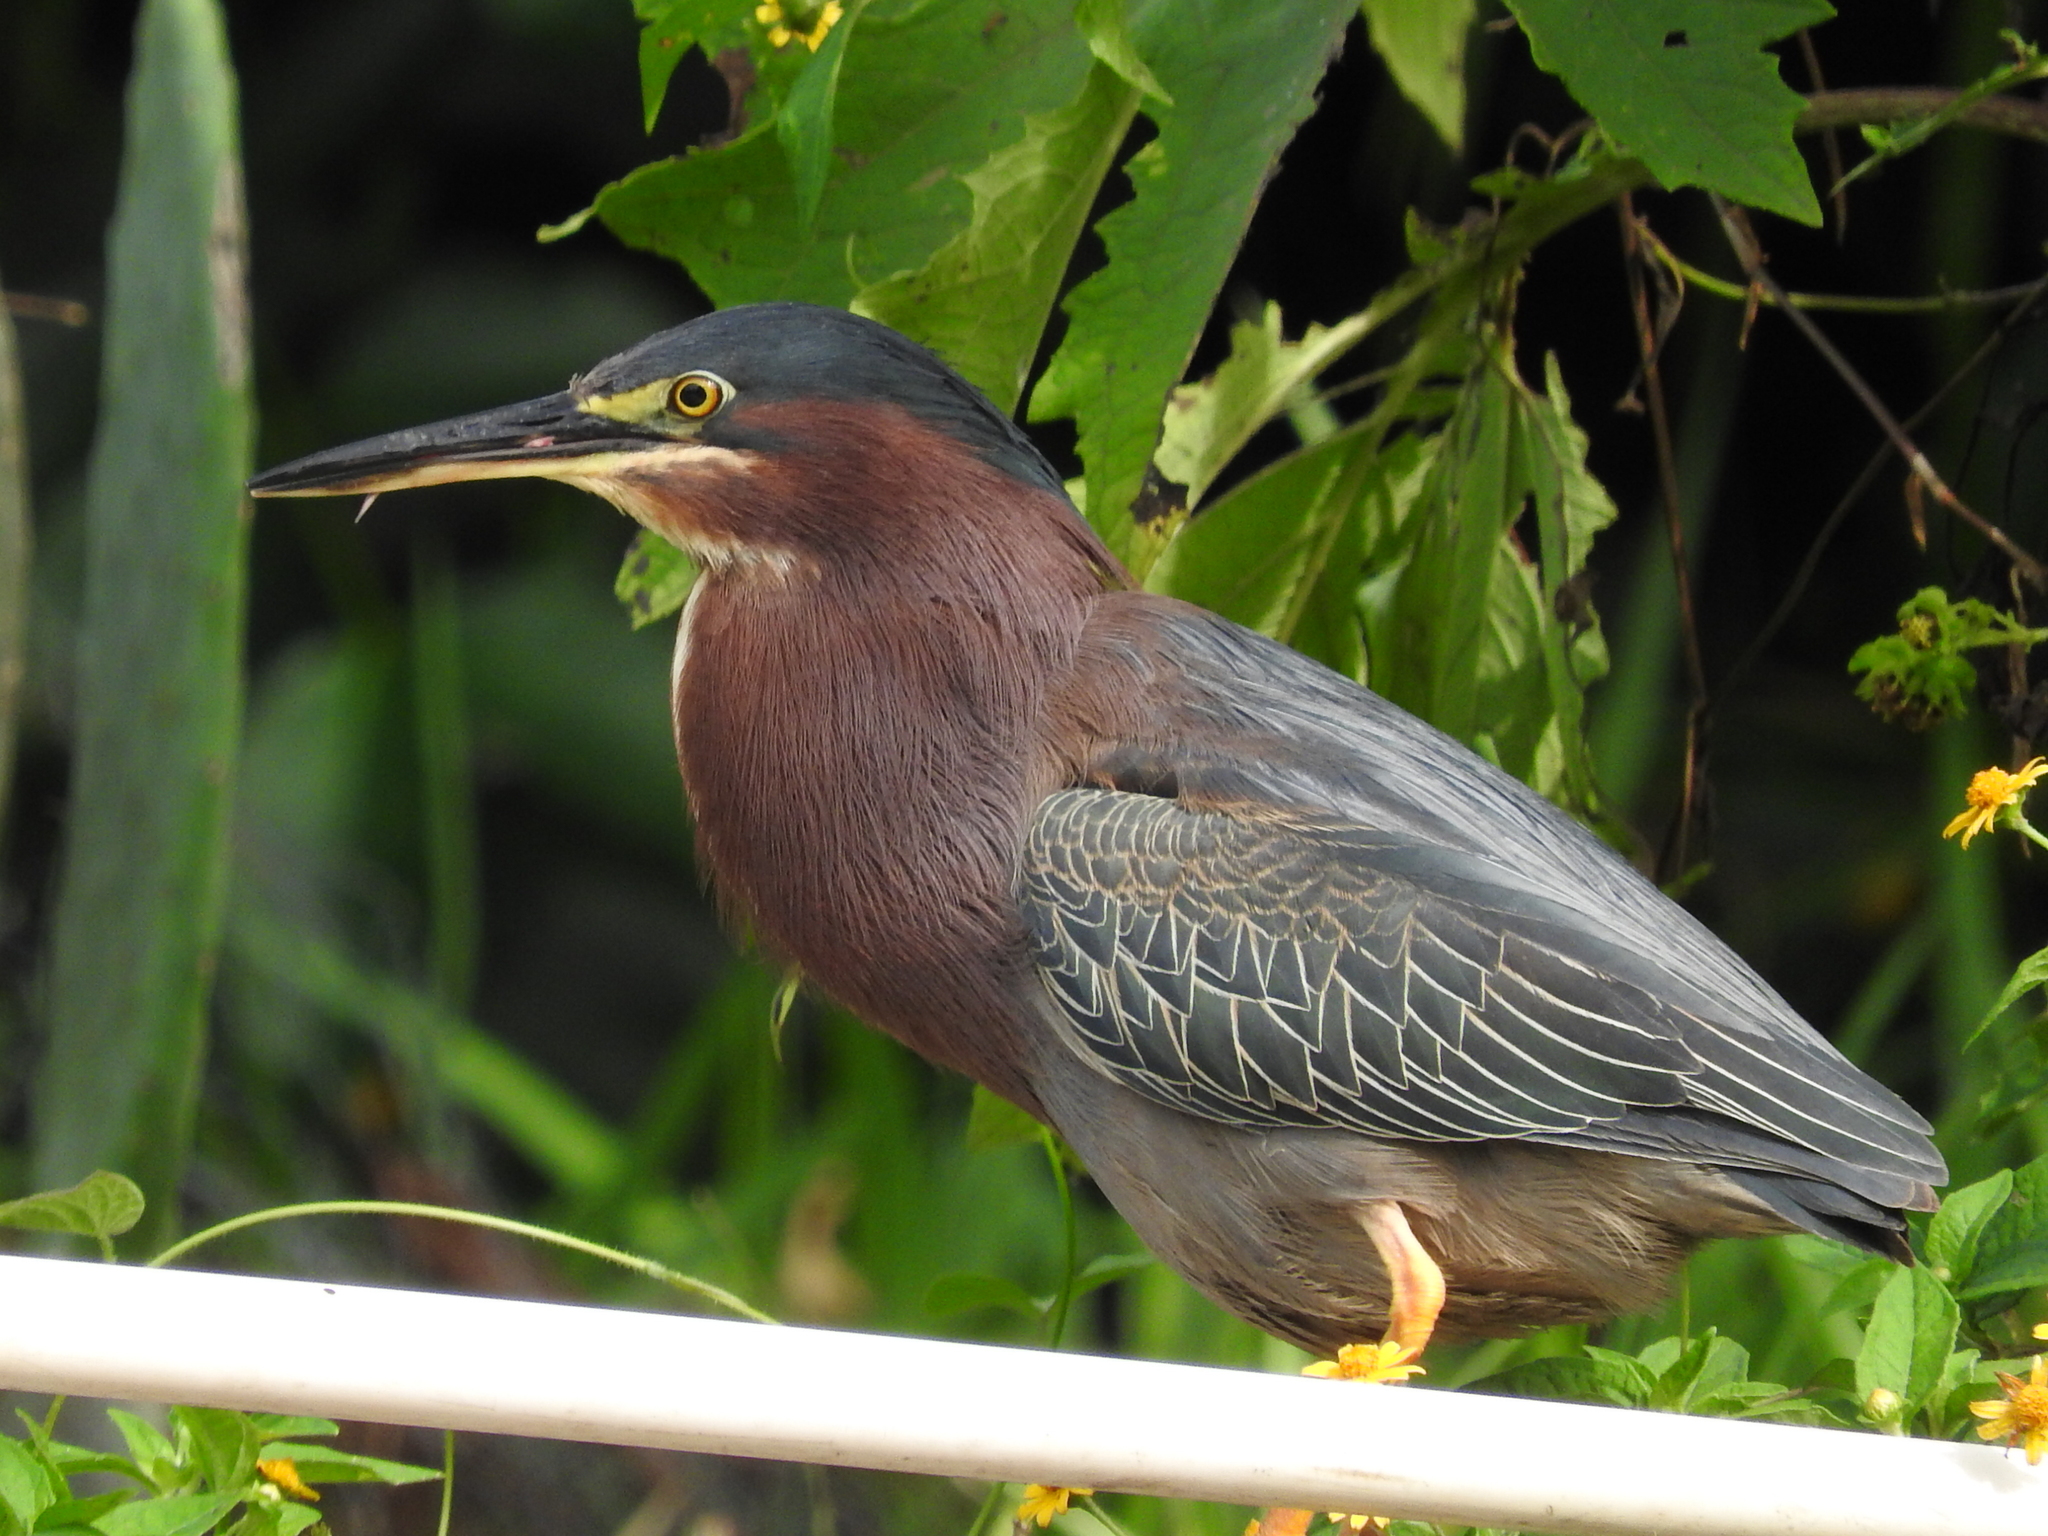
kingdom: Animalia
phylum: Chordata
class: Aves
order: Pelecaniformes
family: Ardeidae
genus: Butorides
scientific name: Butorides virescens
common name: Green heron
